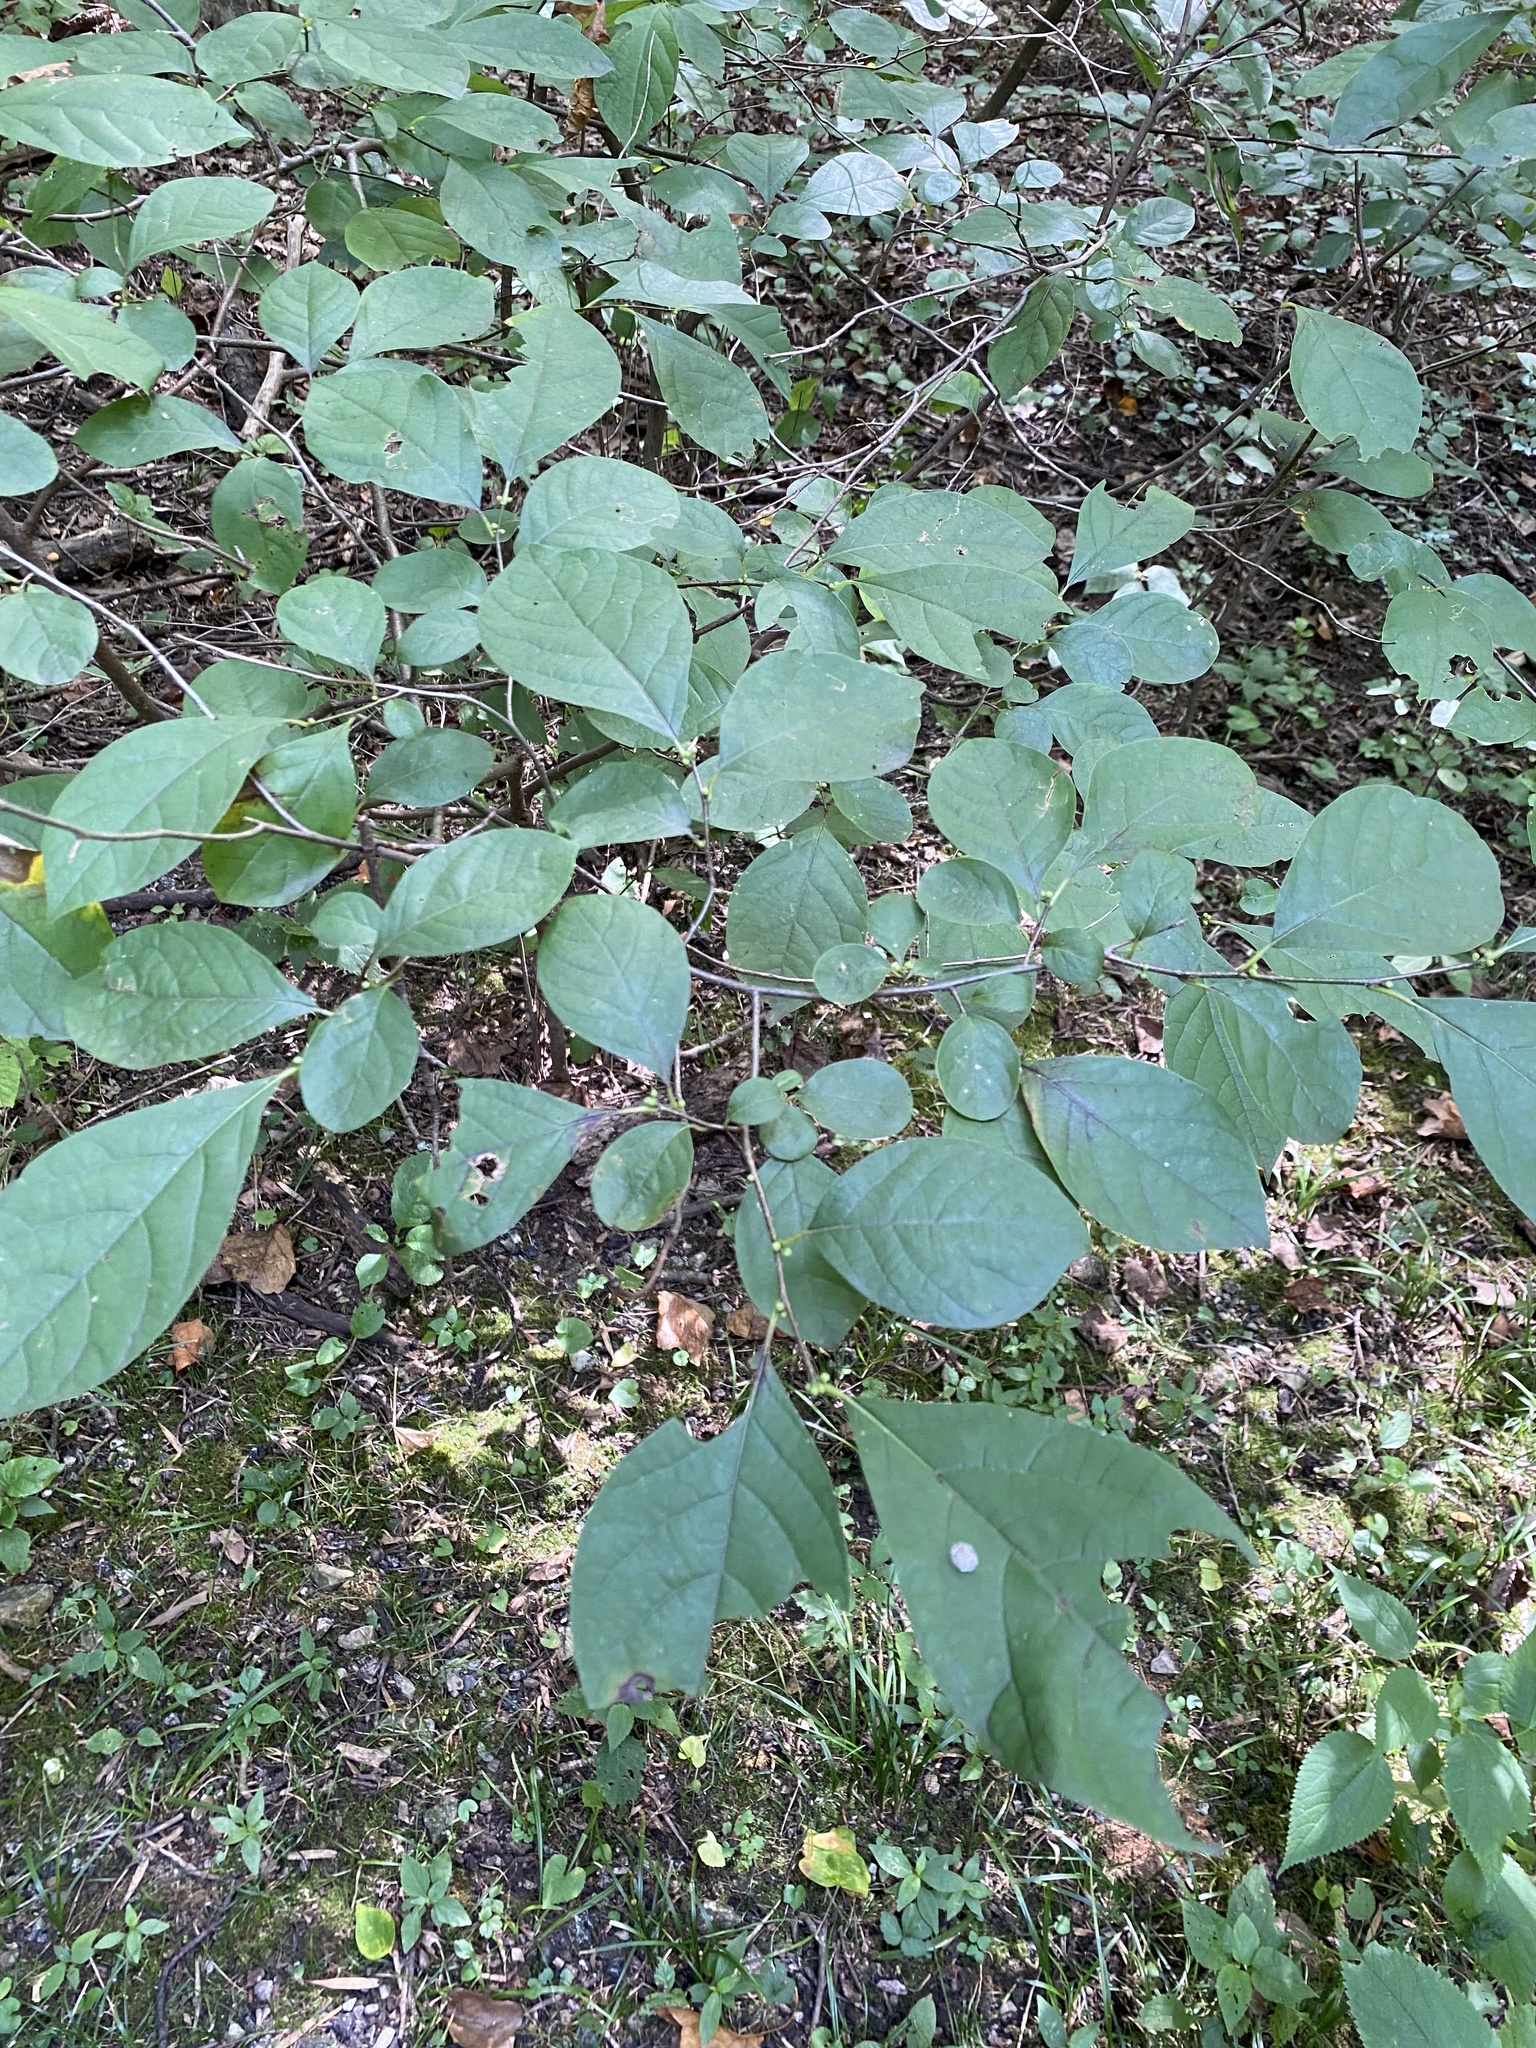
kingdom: Plantae
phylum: Tracheophyta
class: Magnoliopsida
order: Laurales
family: Lauraceae
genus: Lindera
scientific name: Lindera benzoin
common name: Spicebush
